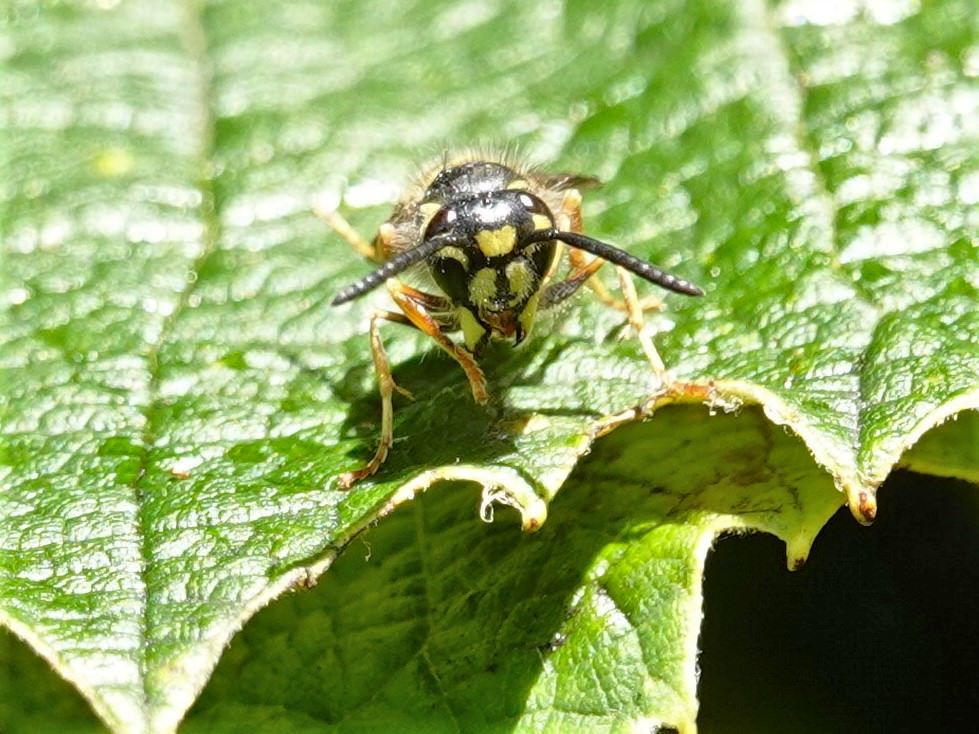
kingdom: Animalia
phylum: Arthropoda
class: Insecta
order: Hymenoptera
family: Vespidae
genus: Vespula
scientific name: Vespula vulgaris
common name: Common wasp
